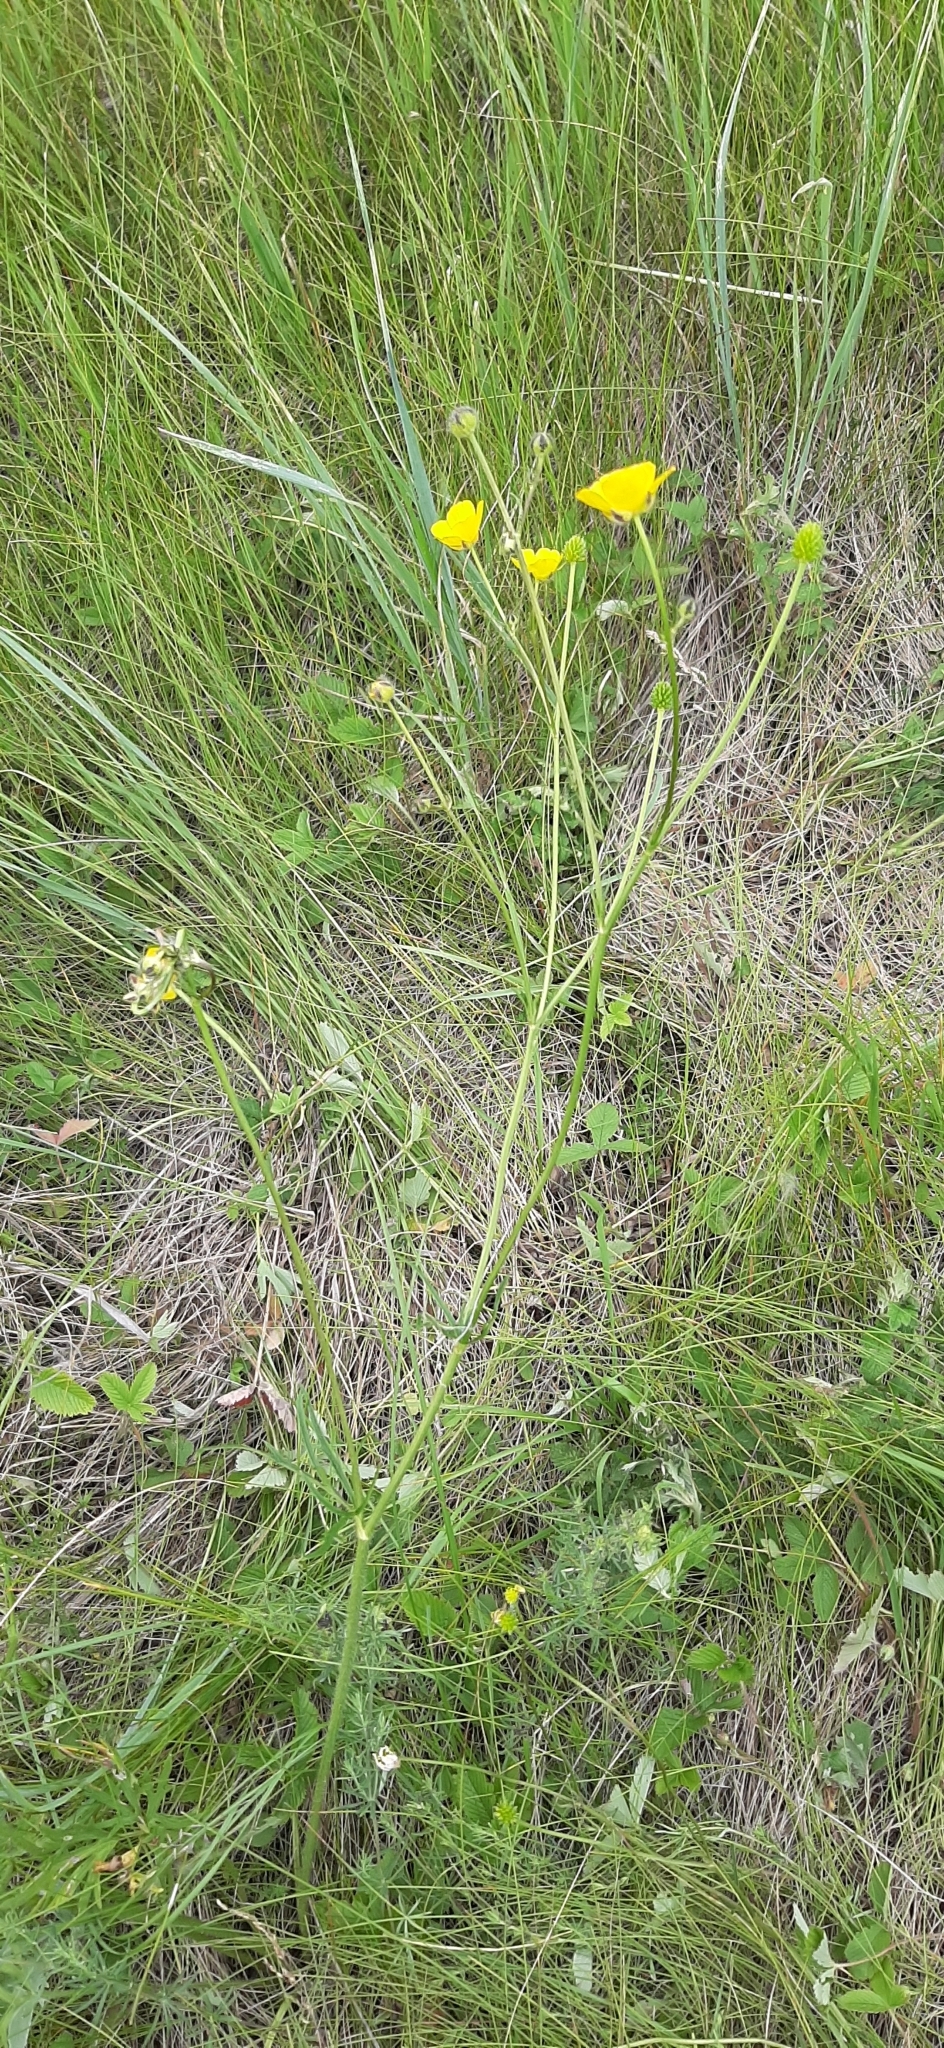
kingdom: Plantae
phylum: Tracheophyta
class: Magnoliopsida
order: Ranunculales
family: Ranunculaceae
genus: Ranunculus
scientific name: Ranunculus polyanthemos
